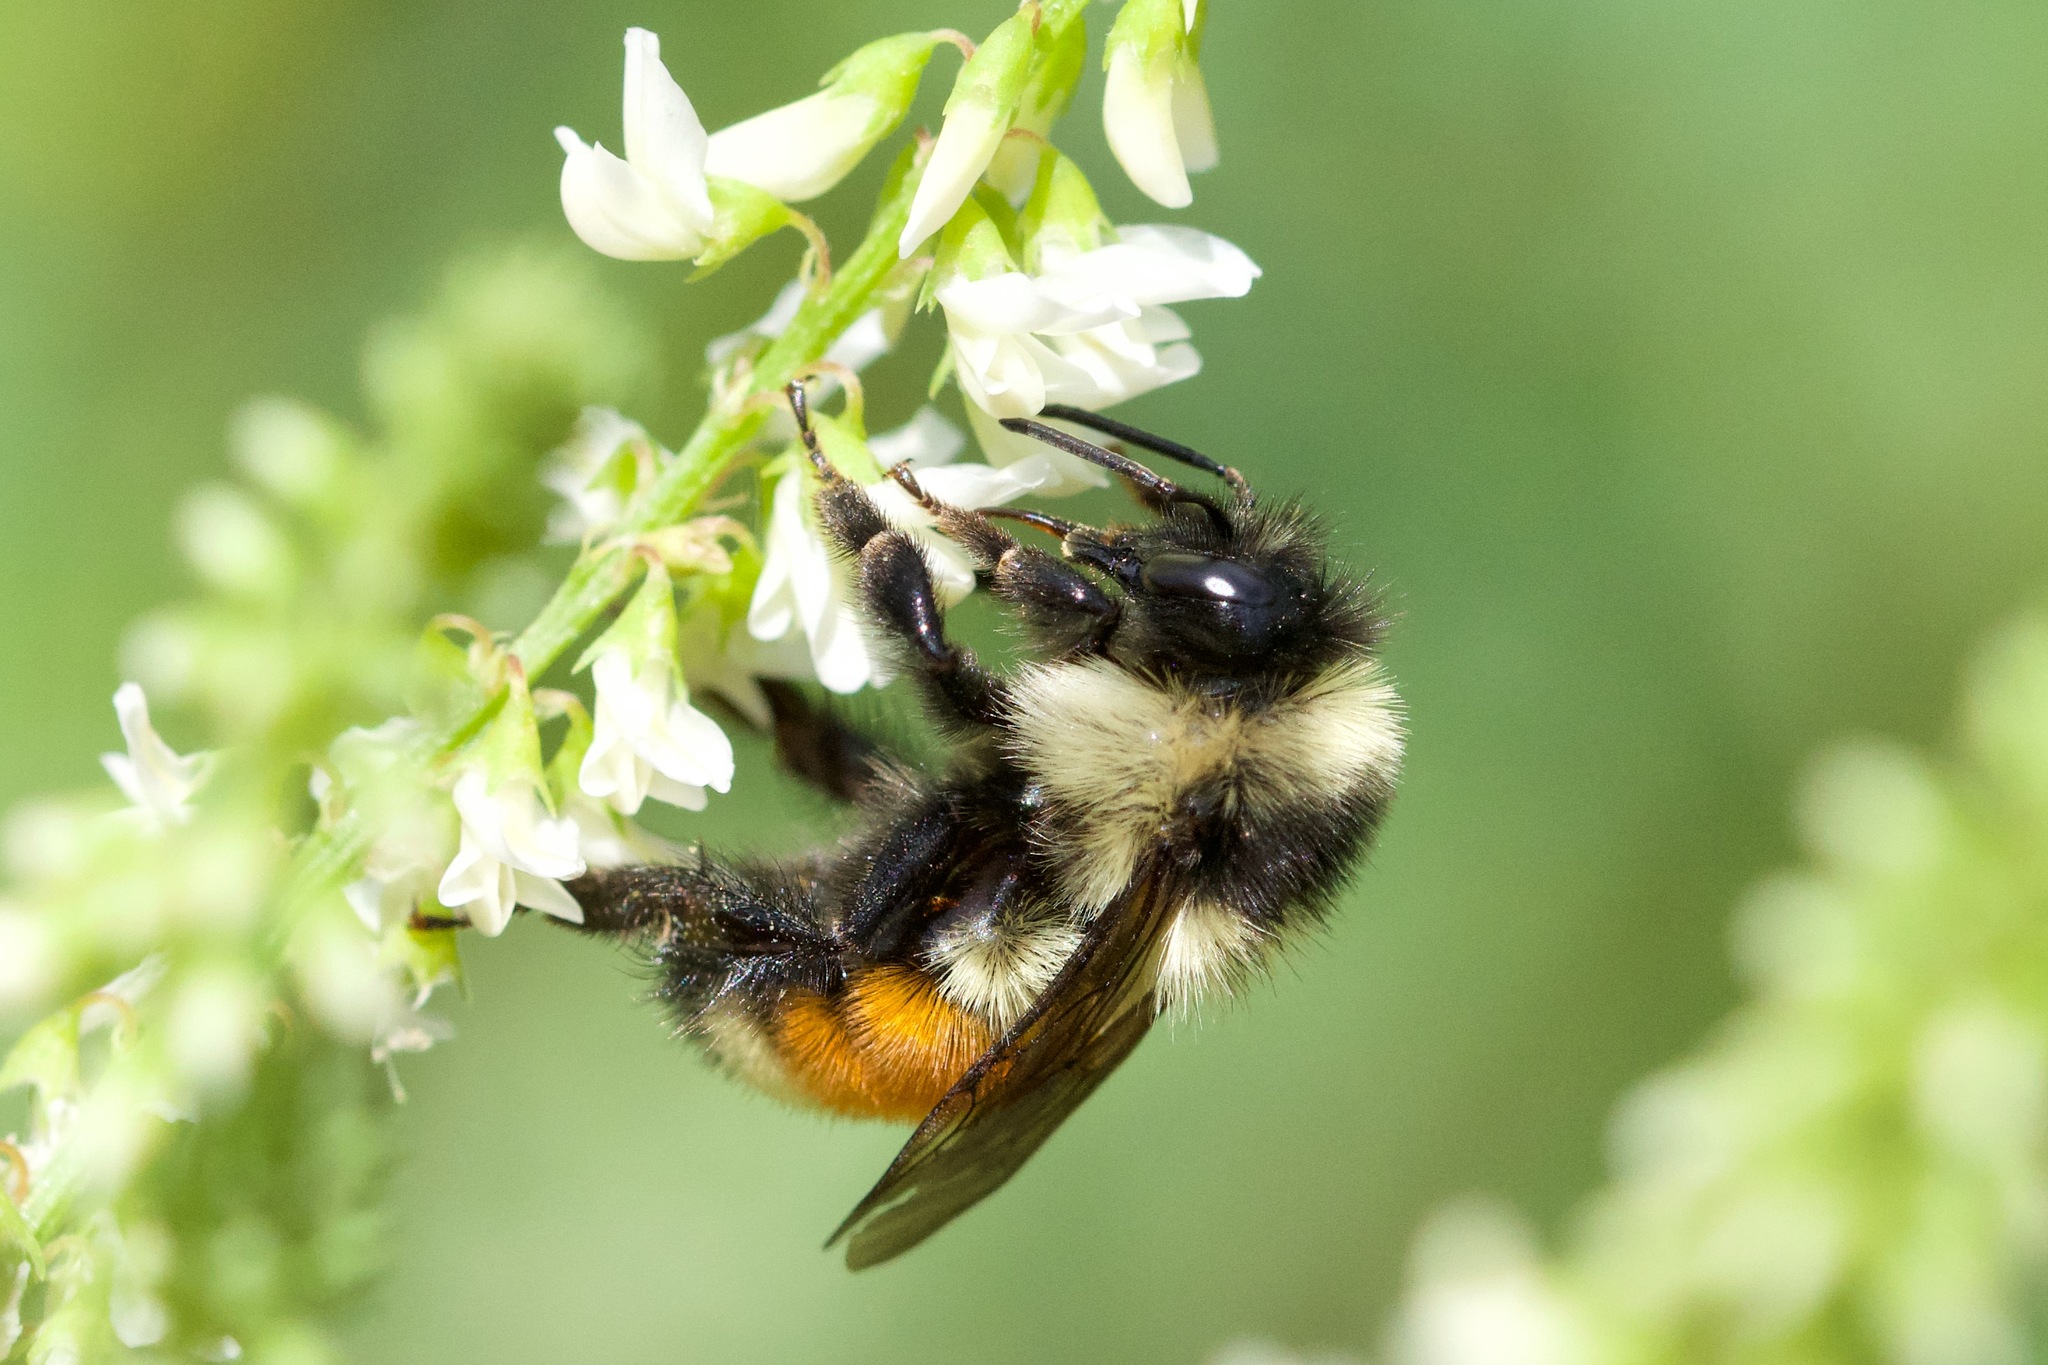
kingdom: Animalia
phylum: Arthropoda
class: Insecta
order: Hymenoptera
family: Apidae
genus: Bombus
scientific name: Bombus ternarius
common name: Tri-colored bumble bee
